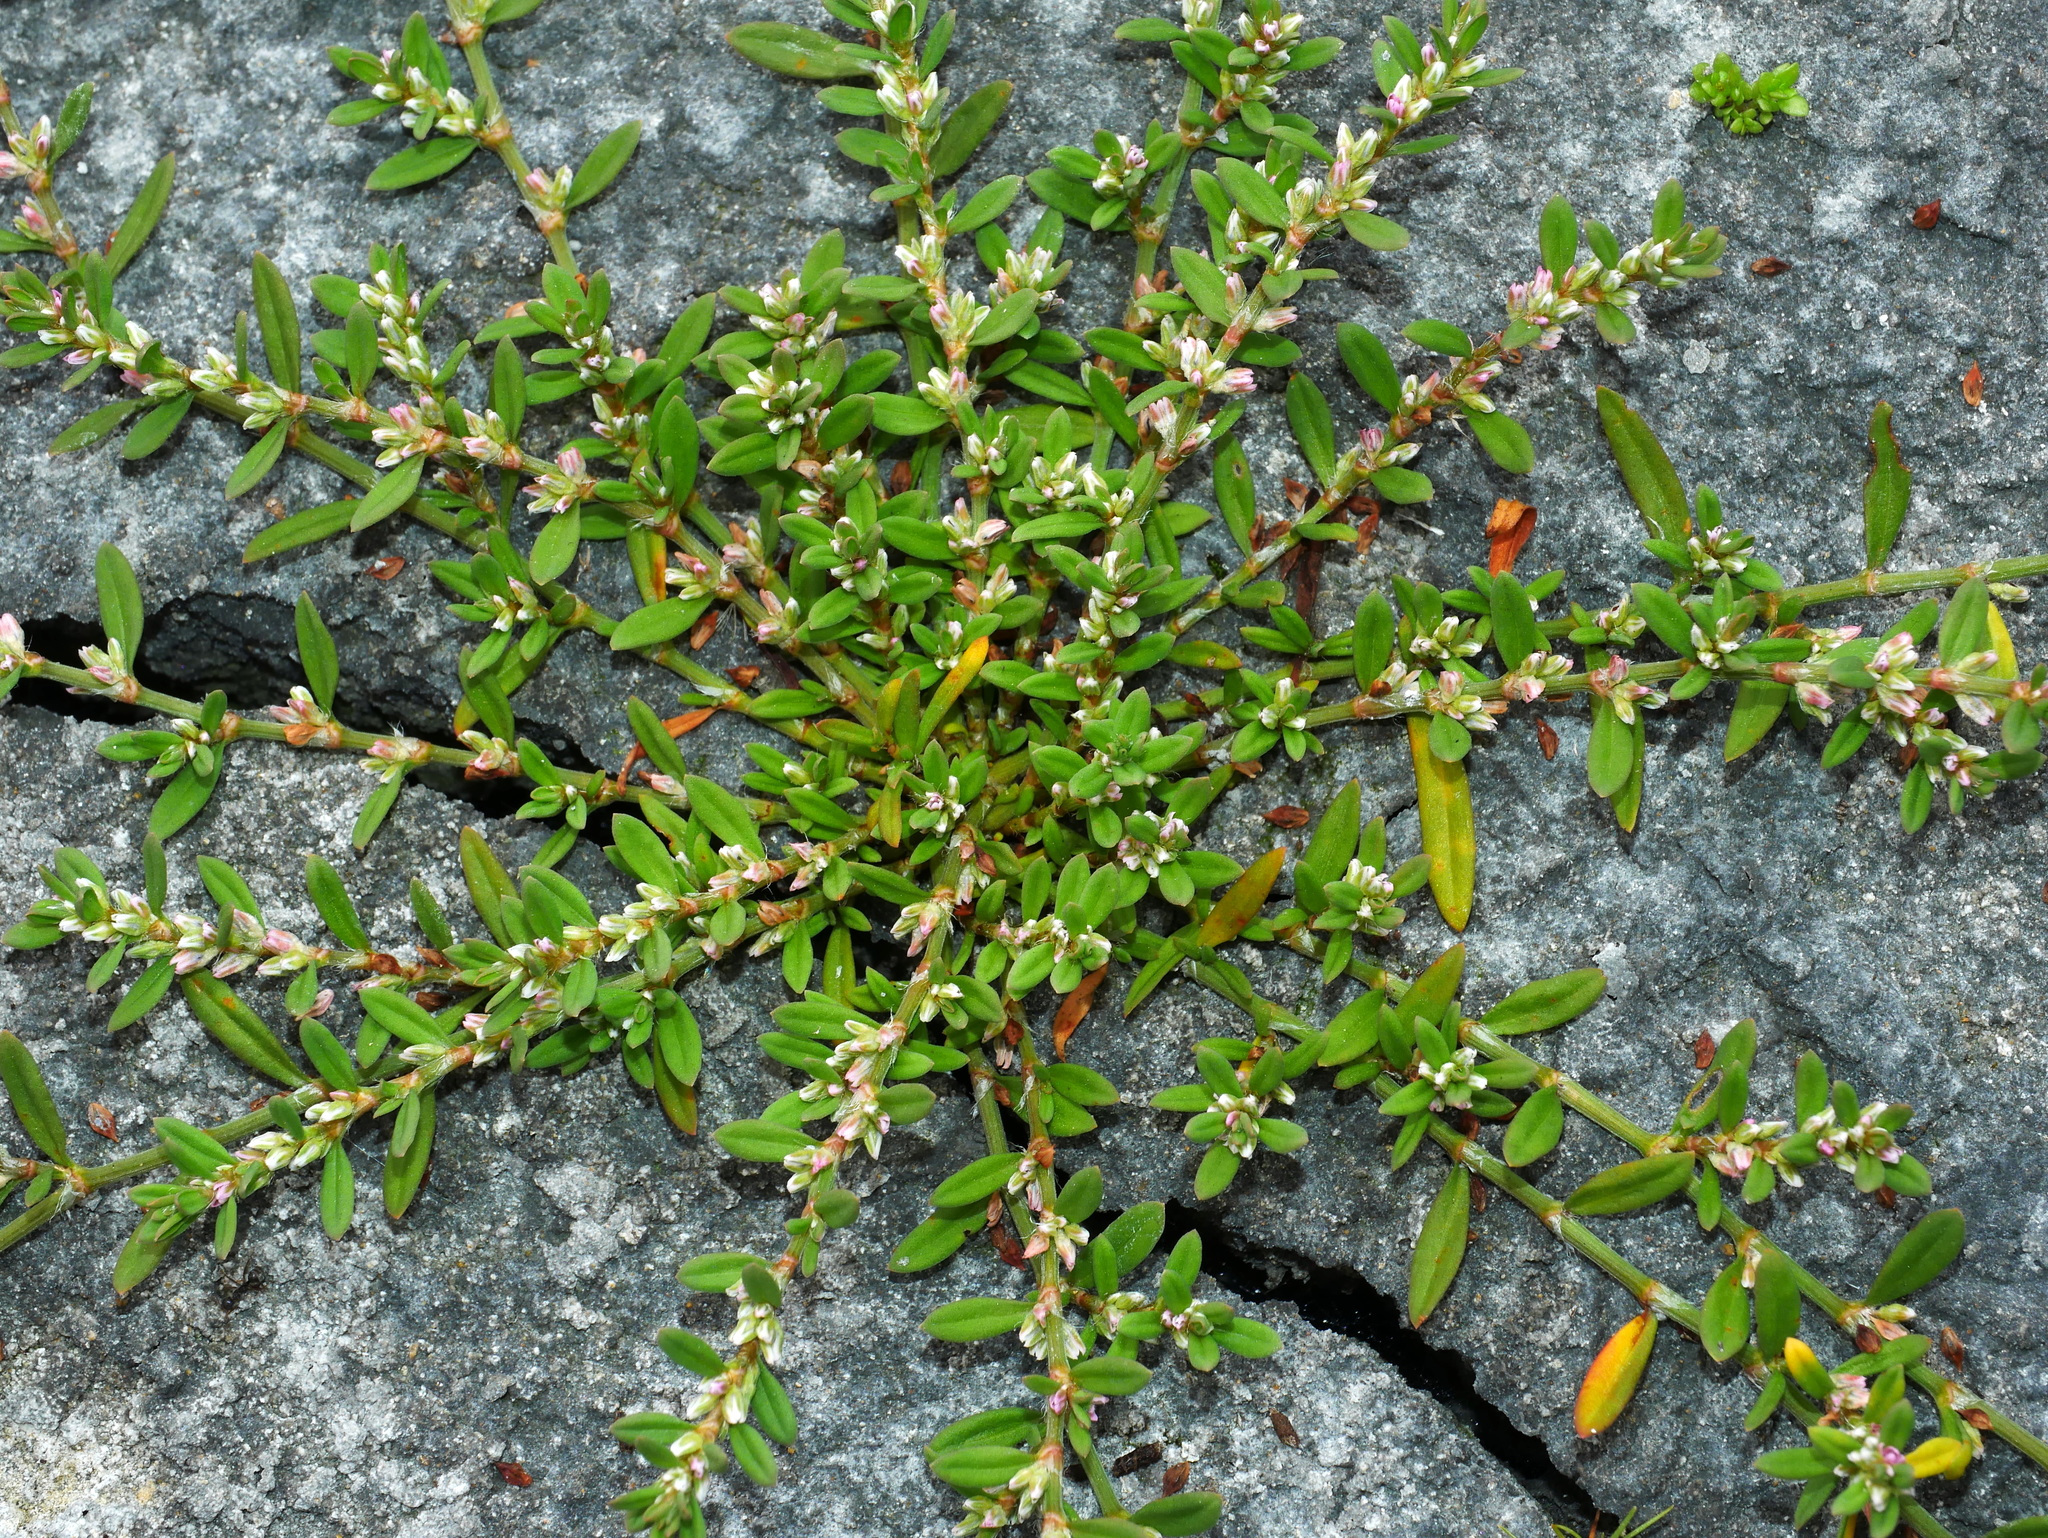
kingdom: Plantae
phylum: Tracheophyta
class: Magnoliopsida
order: Caryophyllales
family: Polygonaceae
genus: Polygonum
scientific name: Polygonum plebeium
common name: Common knotweed
